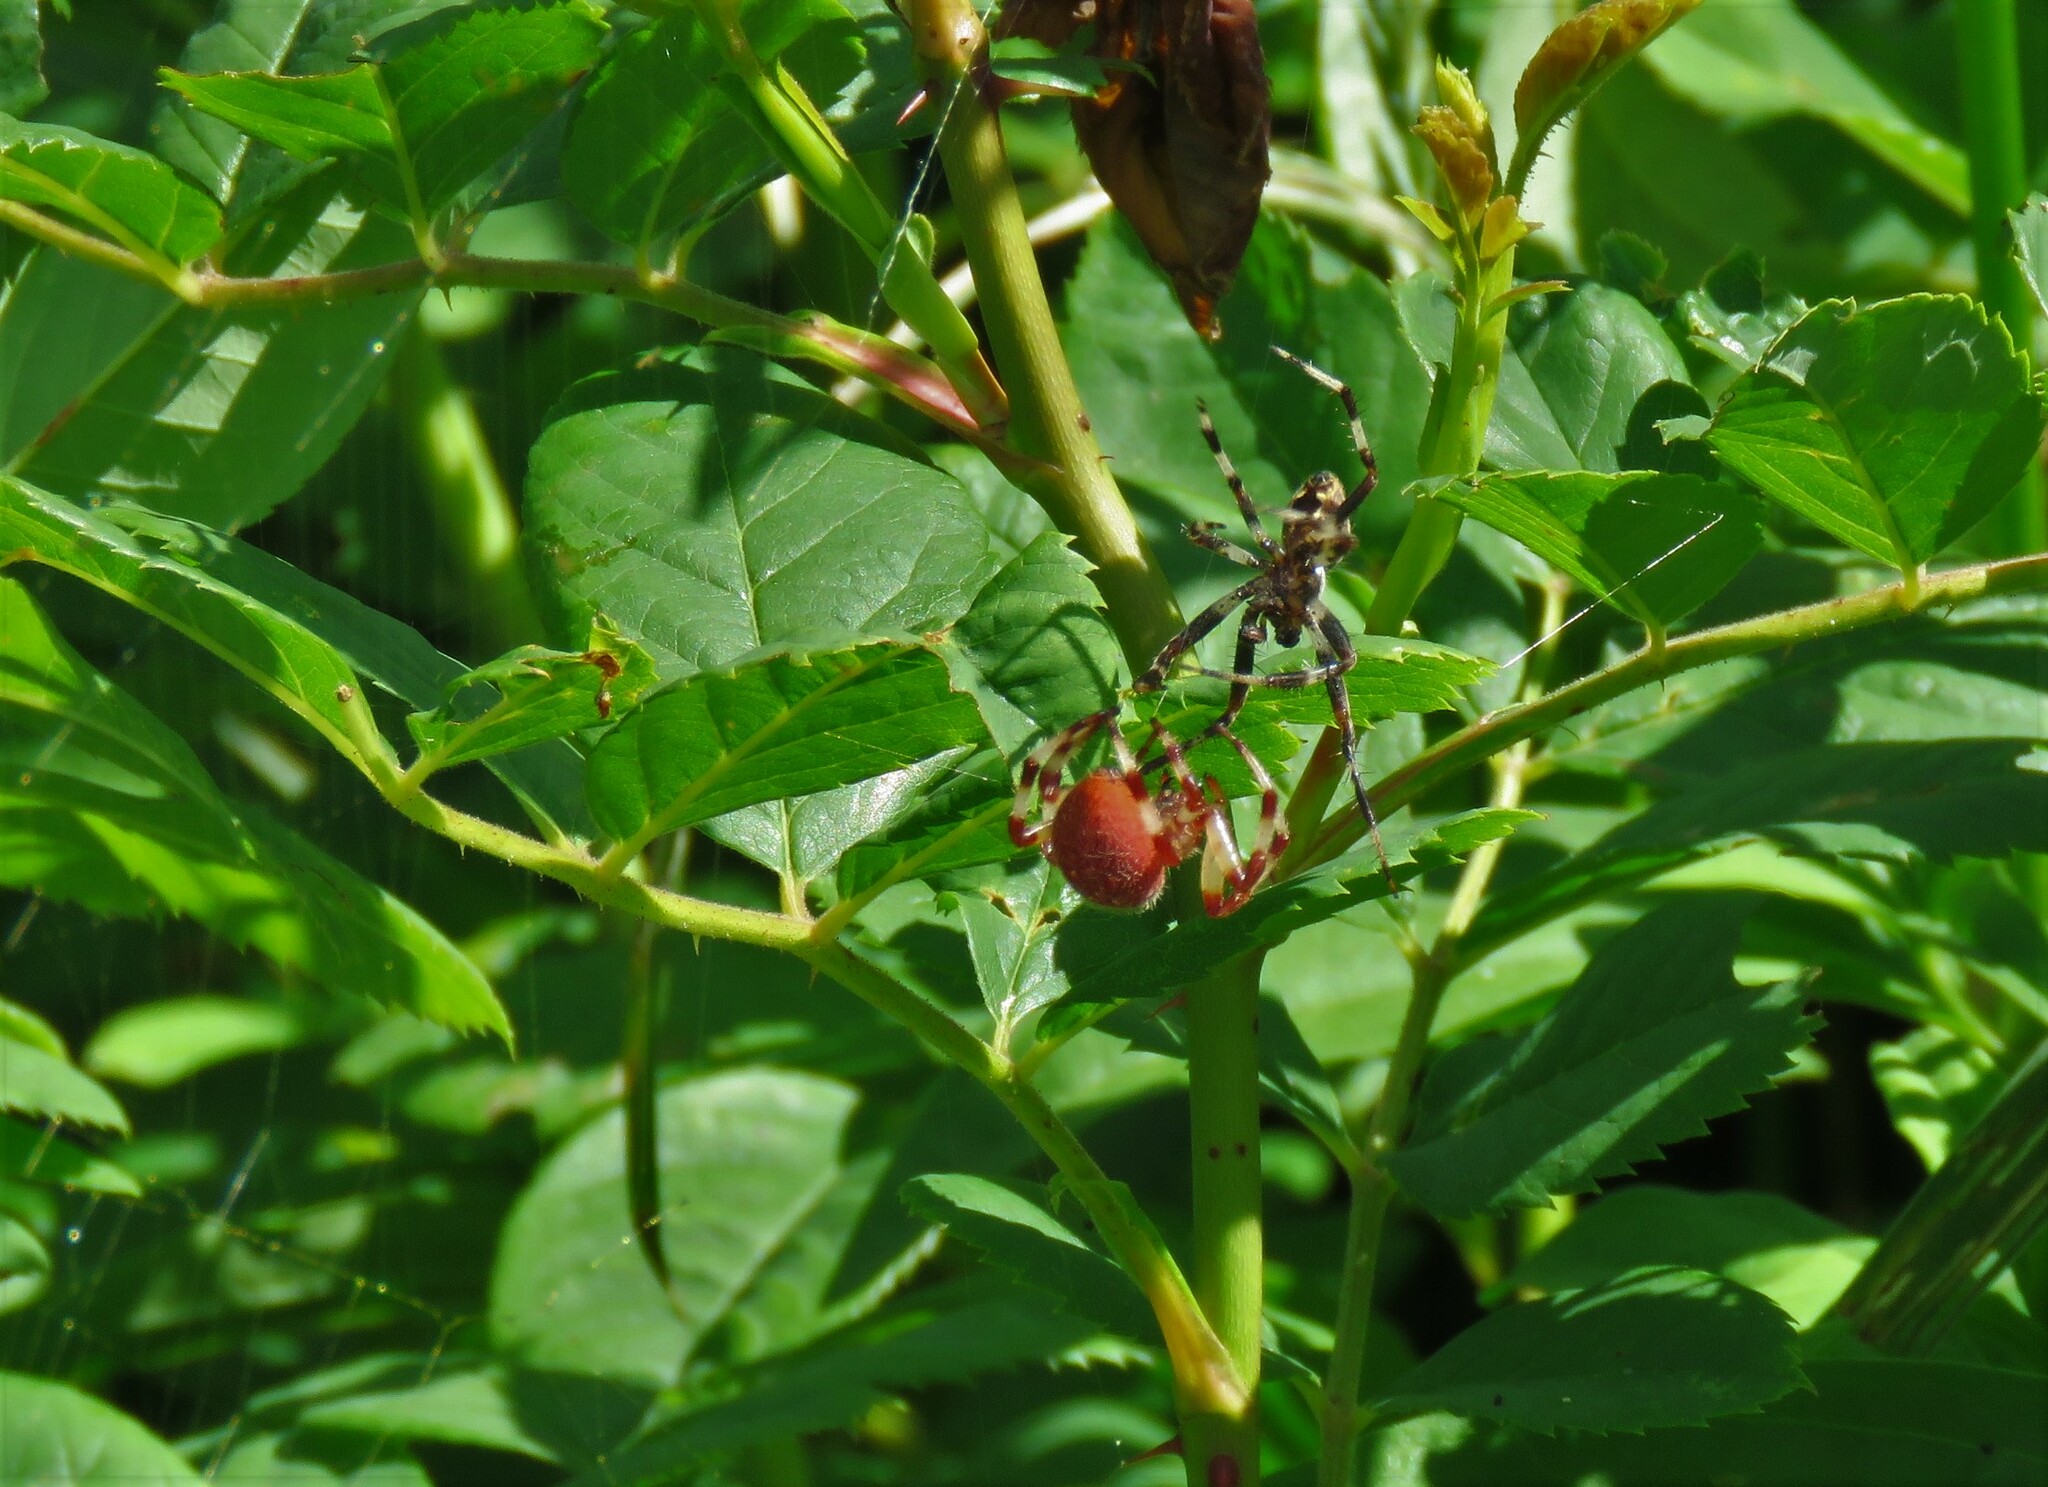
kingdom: Animalia
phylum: Arthropoda
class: Arachnida
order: Araneae
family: Araneidae
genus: Araneus
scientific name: Araneus trifolium
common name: Shamrock orbweaver
